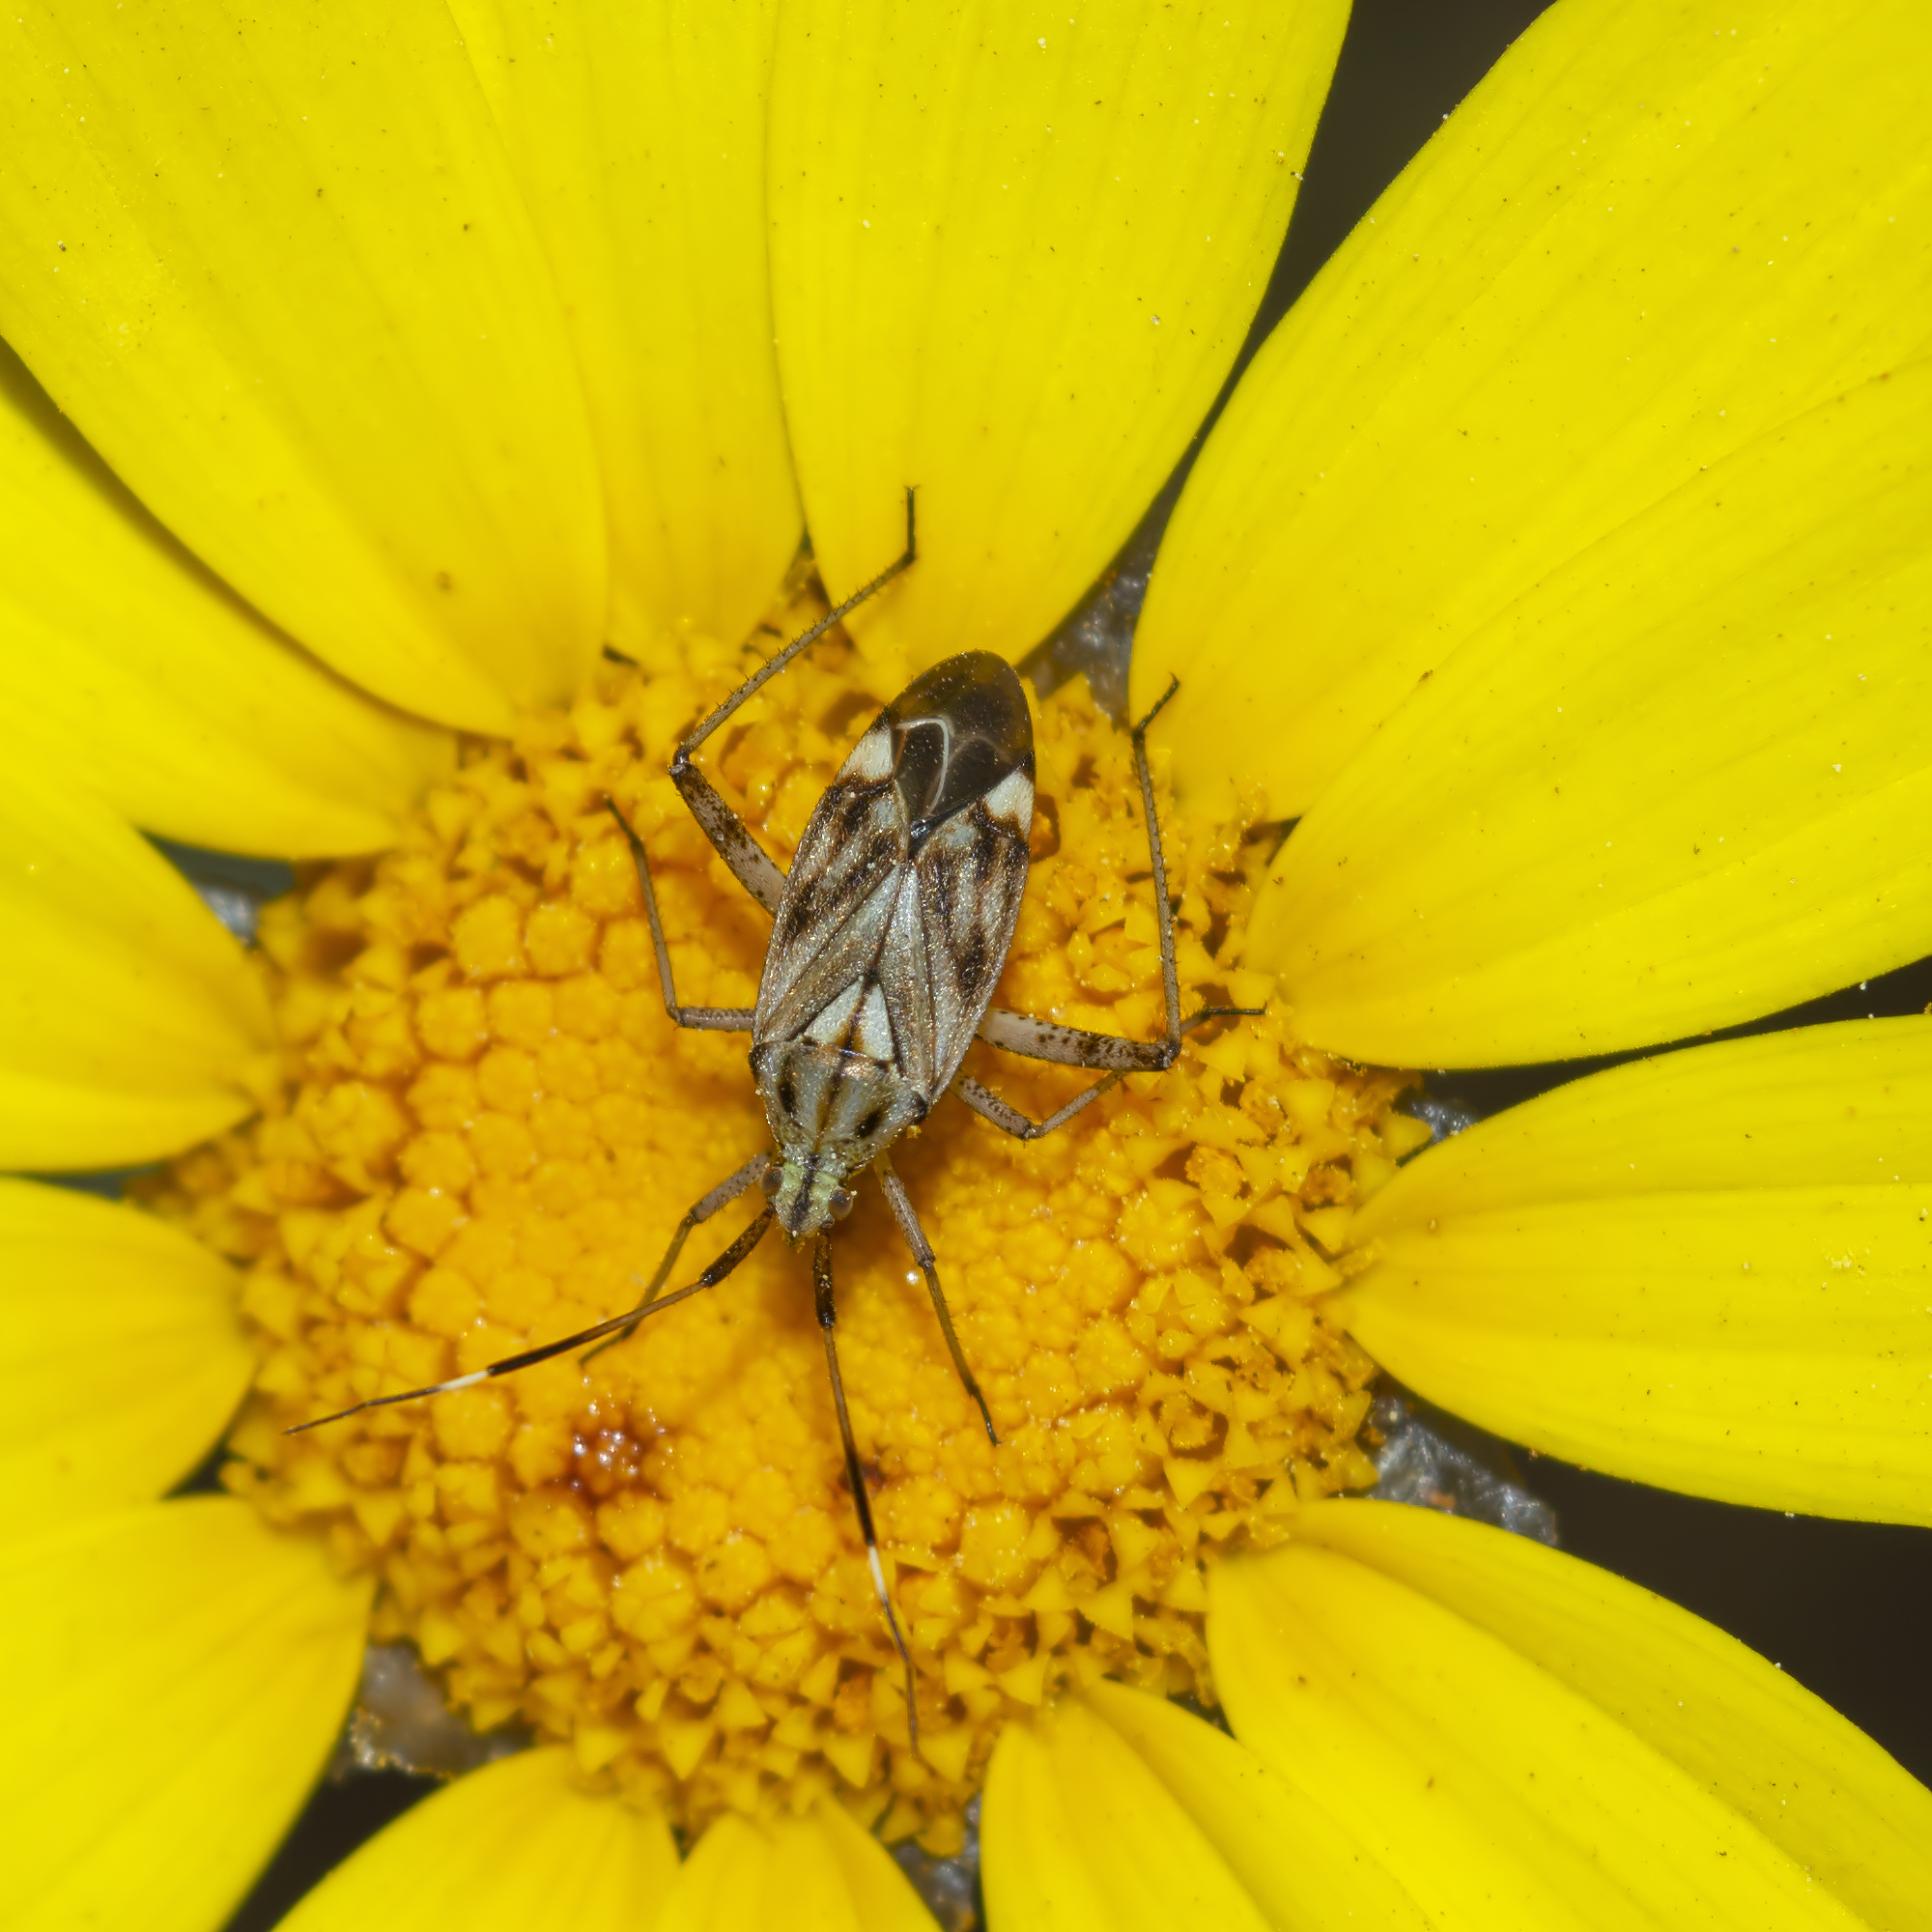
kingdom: Animalia
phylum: Arthropoda
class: Insecta
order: Hemiptera
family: Miridae
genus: Closterotomus
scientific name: Closterotomus histrio
